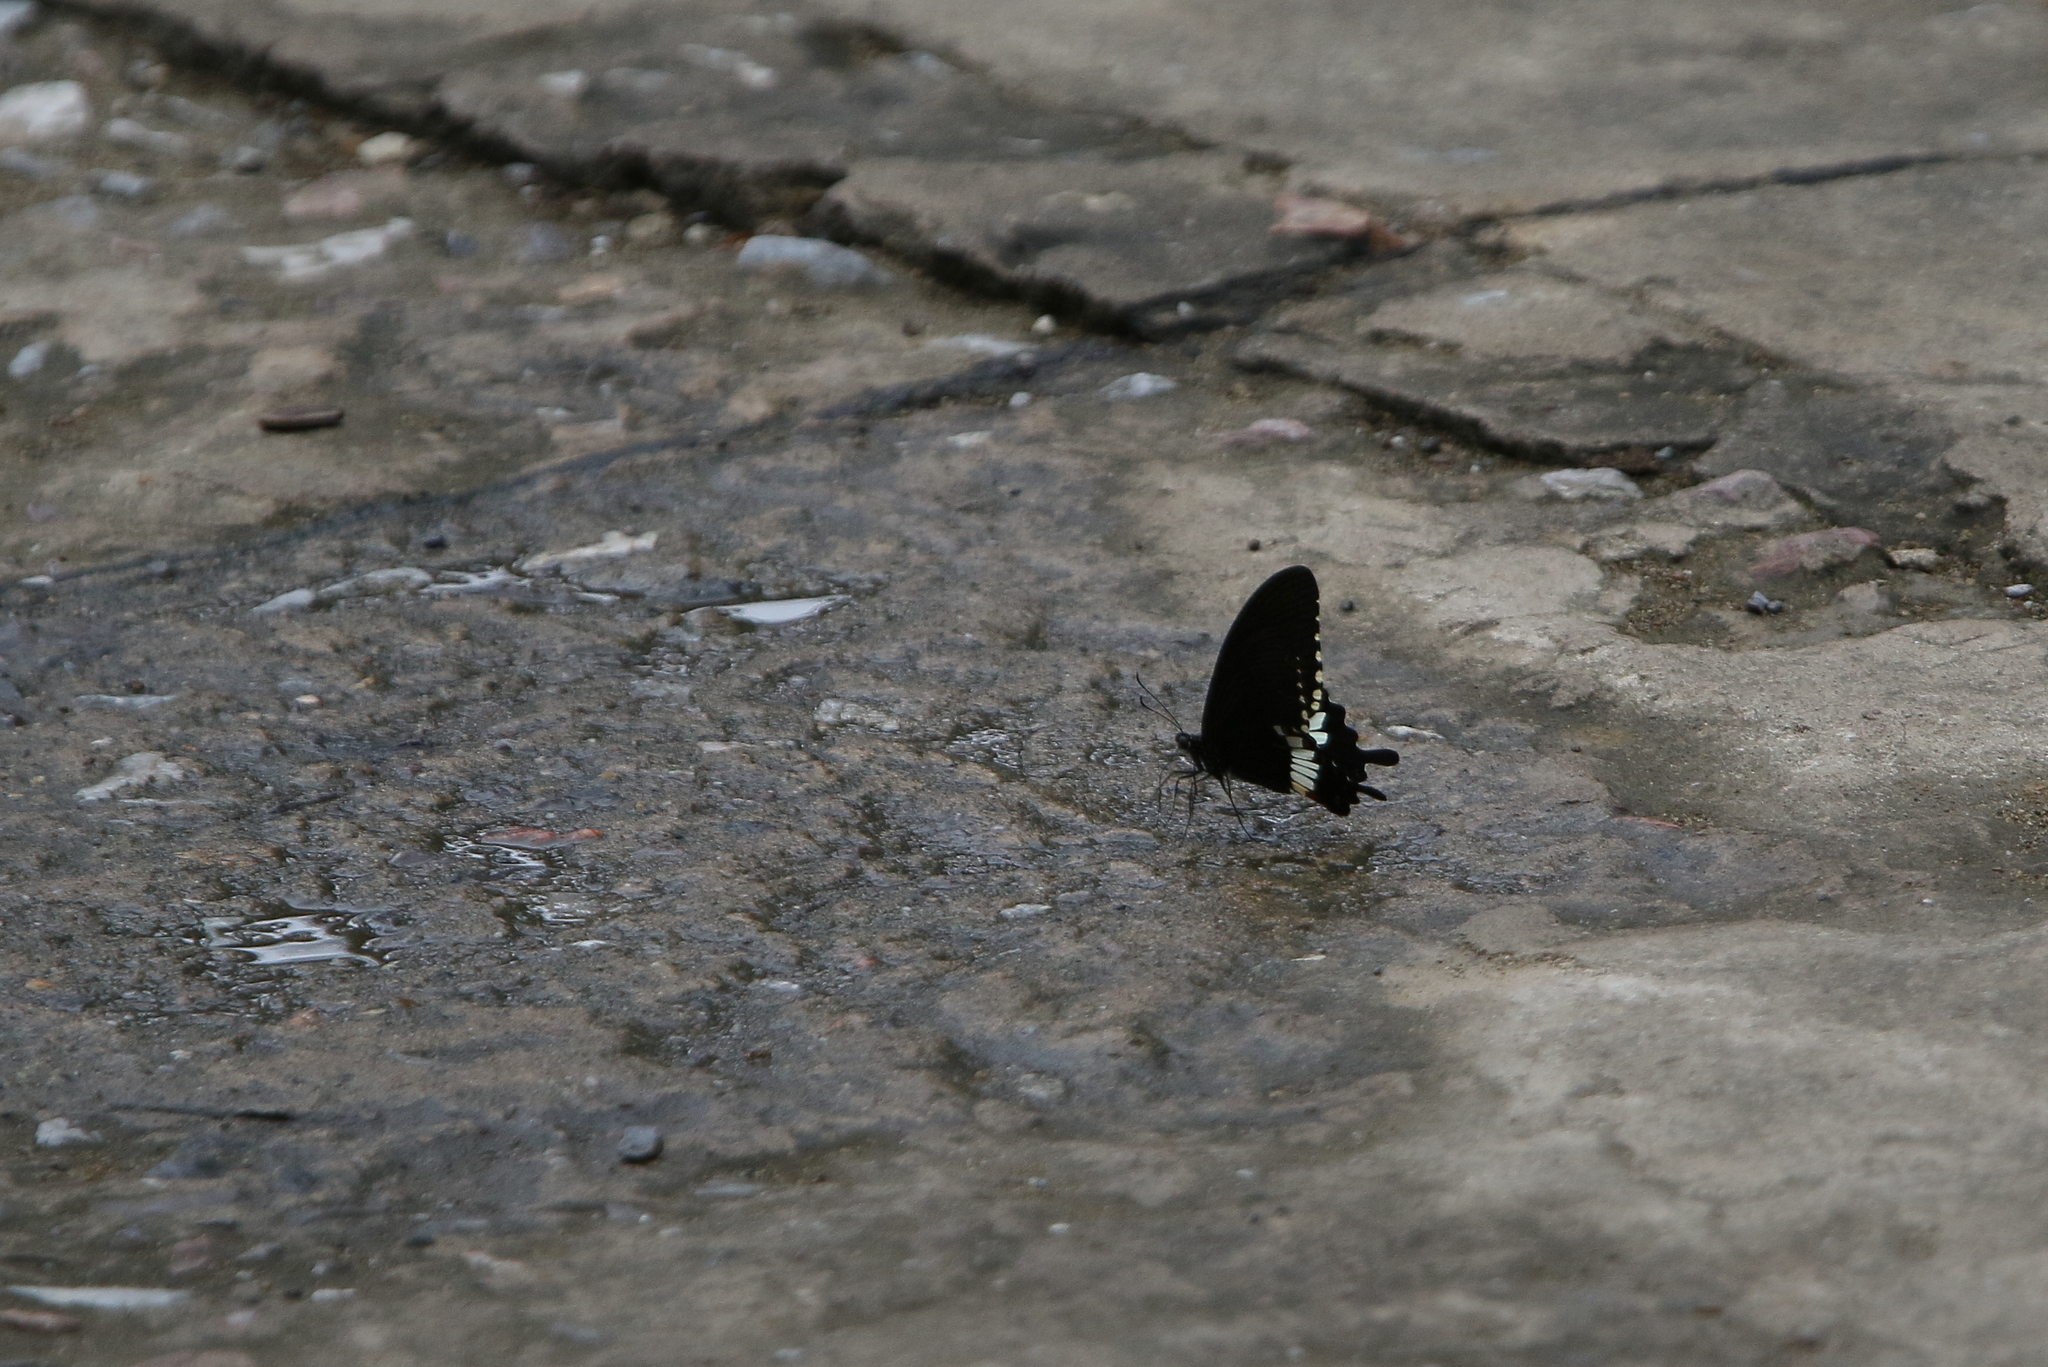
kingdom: Animalia
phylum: Arthropoda
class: Insecta
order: Lepidoptera
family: Papilionidae
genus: Papilio
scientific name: Papilio polytes
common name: Common mormon
